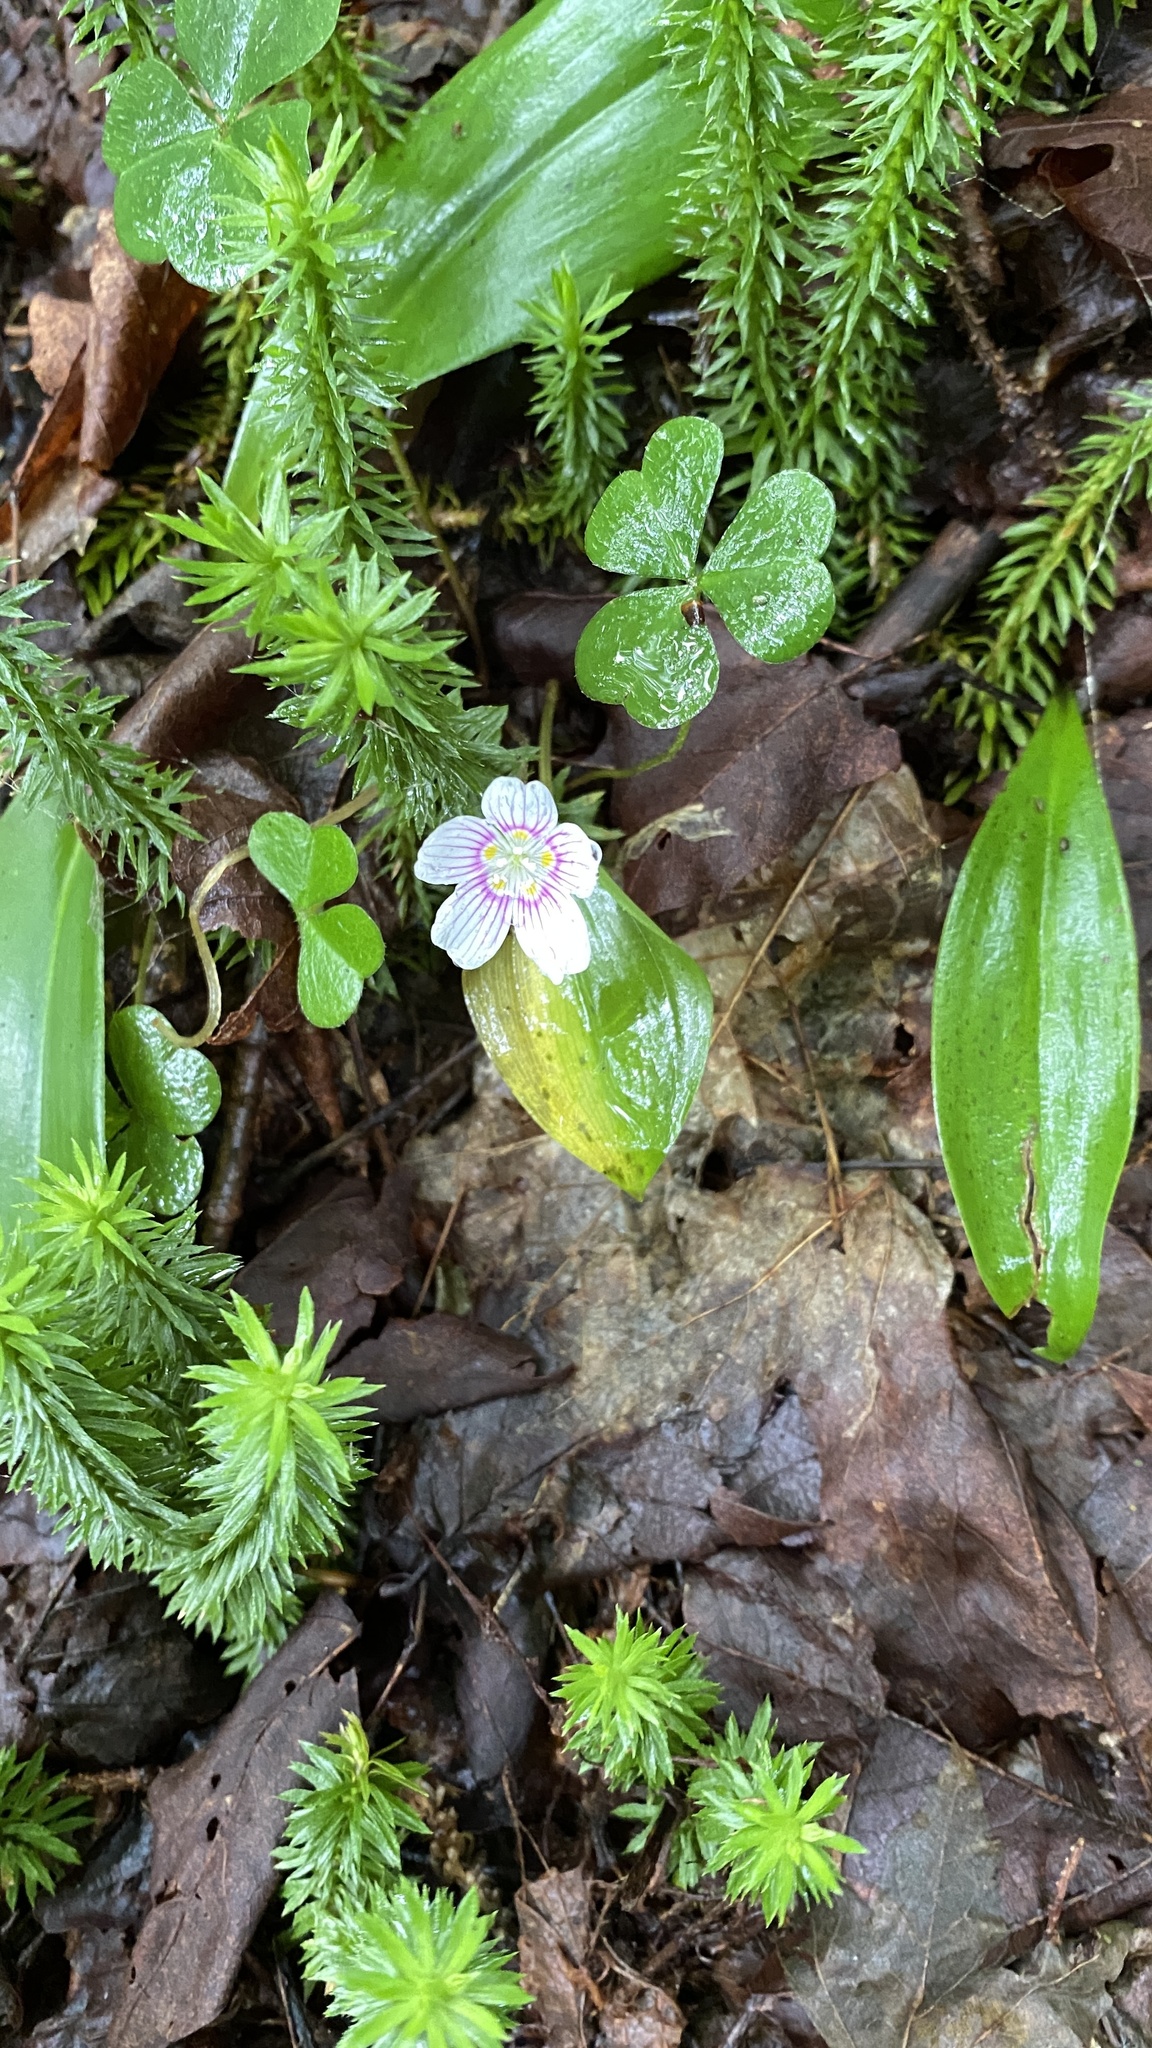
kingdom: Plantae
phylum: Tracheophyta
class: Magnoliopsida
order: Oxalidales
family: Oxalidaceae
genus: Oxalis
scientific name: Oxalis montana
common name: American wood-sorrel
